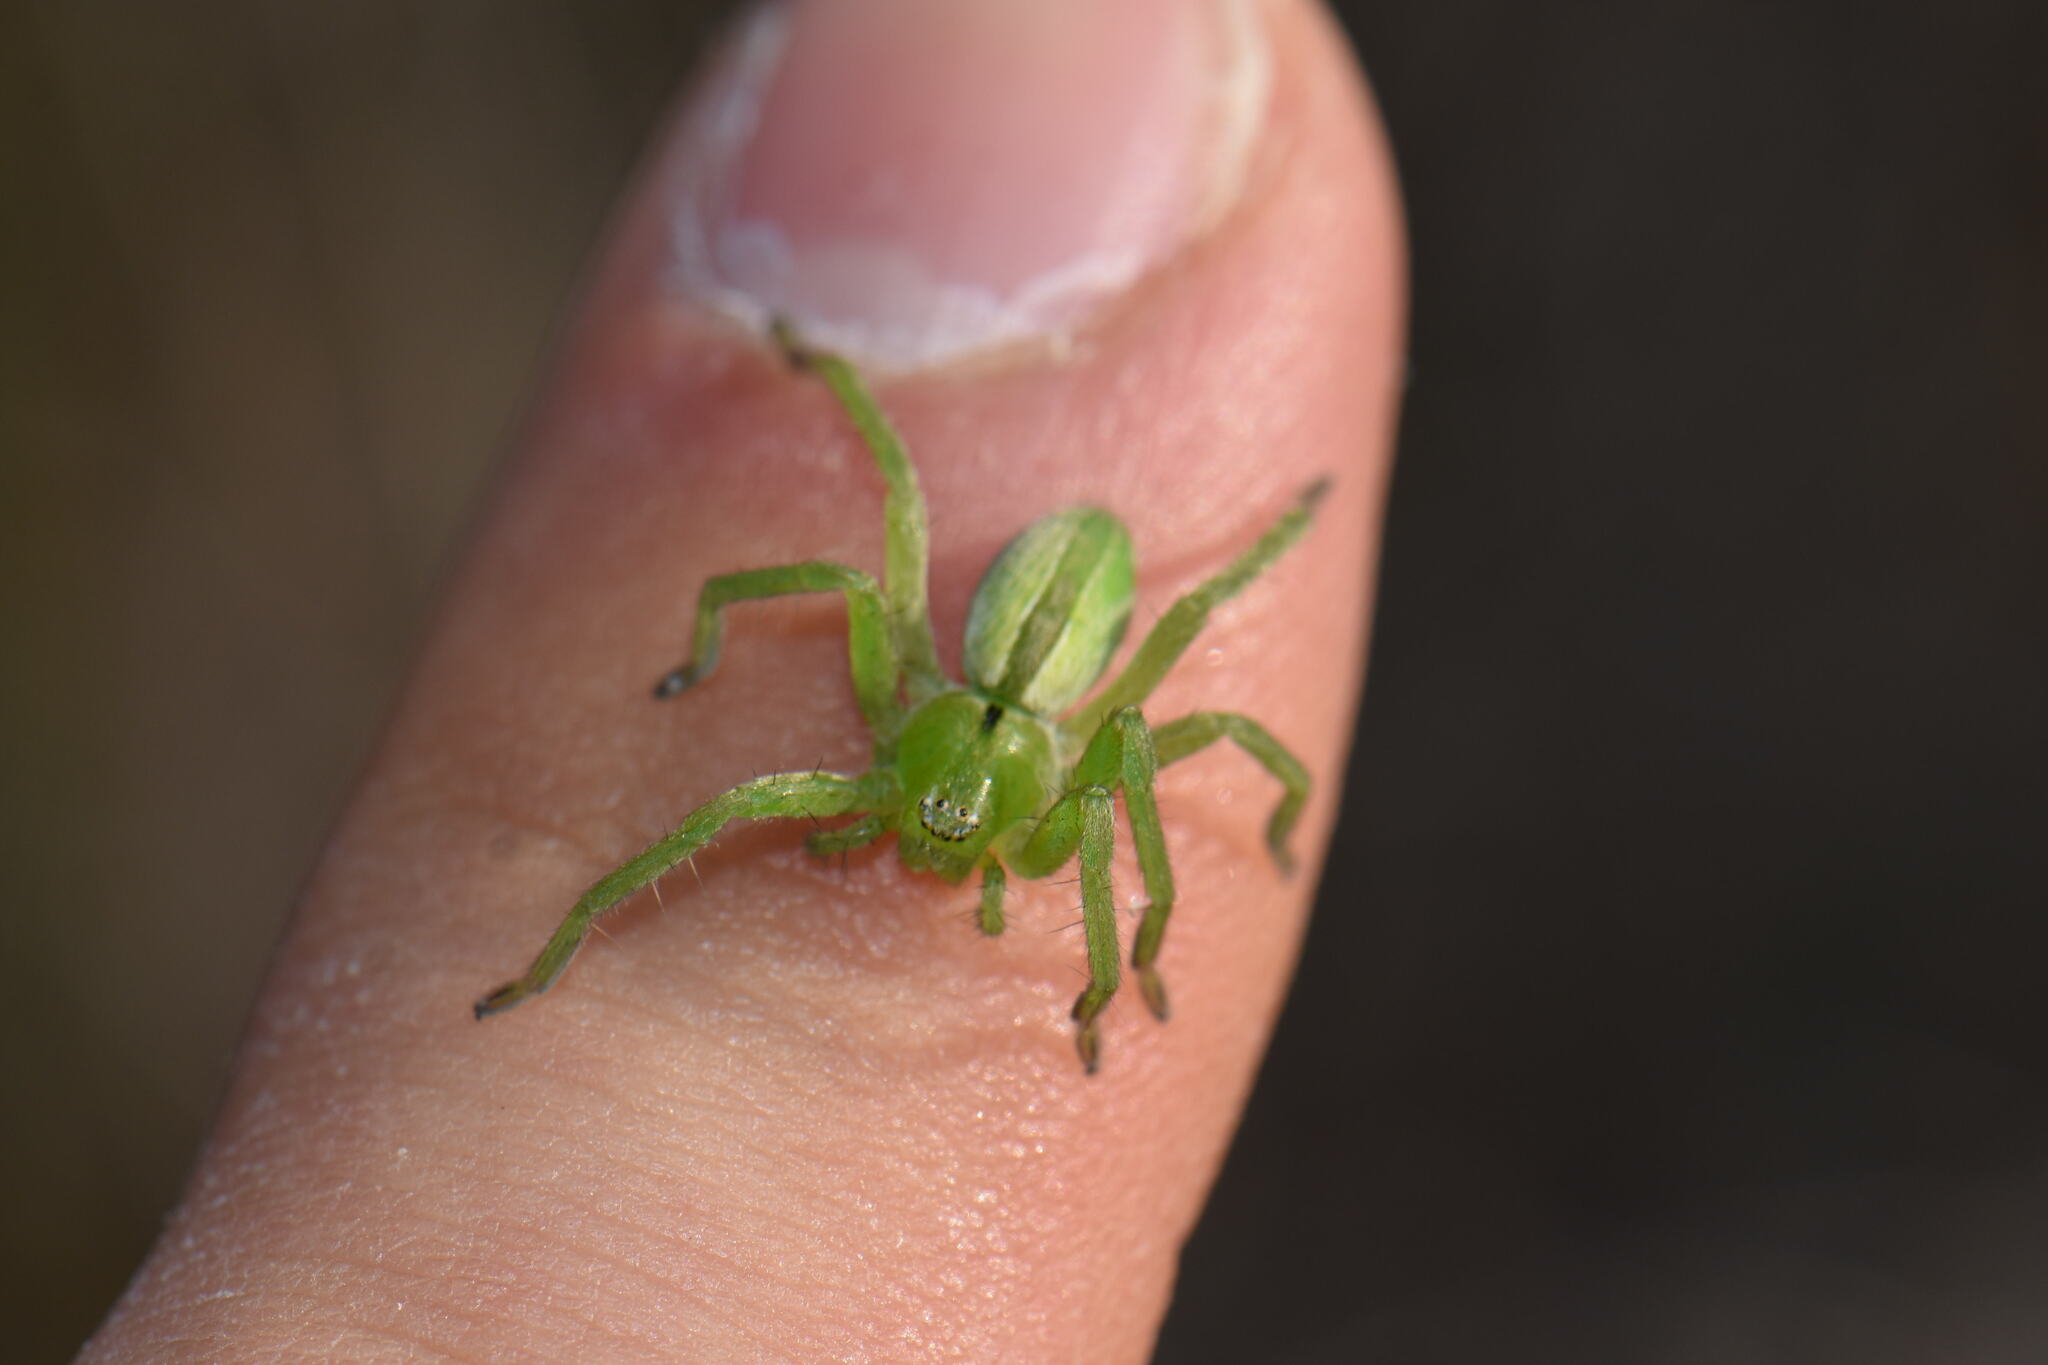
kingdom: Animalia
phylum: Arthropoda
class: Arachnida
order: Araneae
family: Sparassidae
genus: Micrommata
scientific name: Micrommata ligurina
